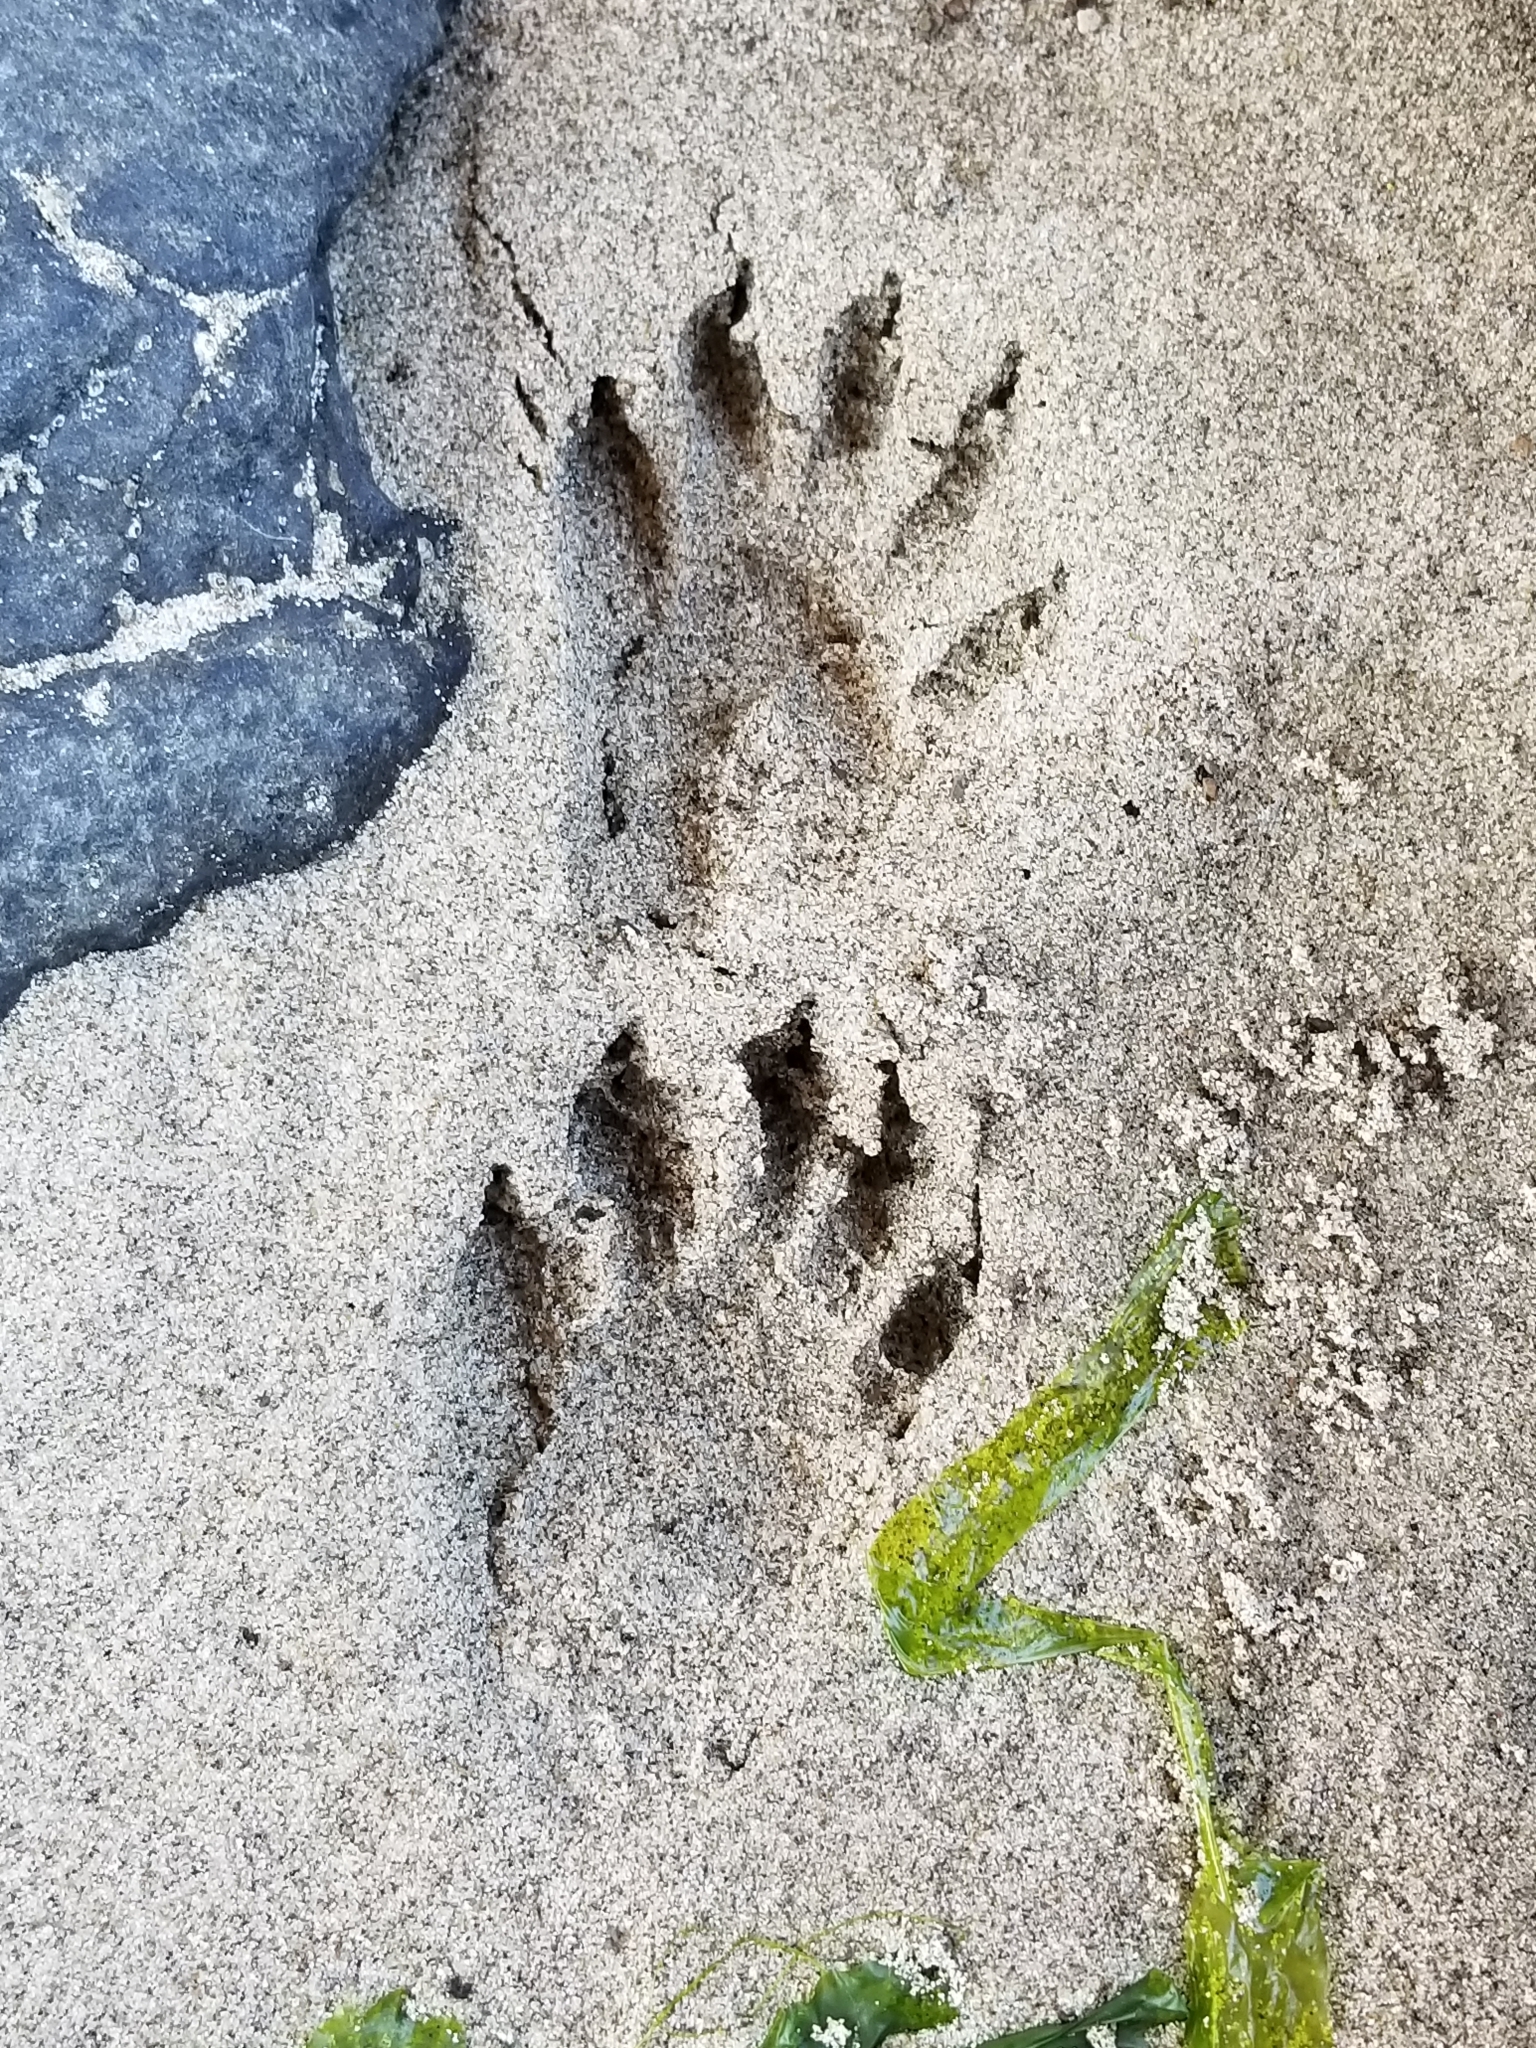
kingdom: Animalia
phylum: Chordata
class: Mammalia
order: Carnivora
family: Procyonidae
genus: Procyon
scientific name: Procyon lotor
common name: Raccoon
